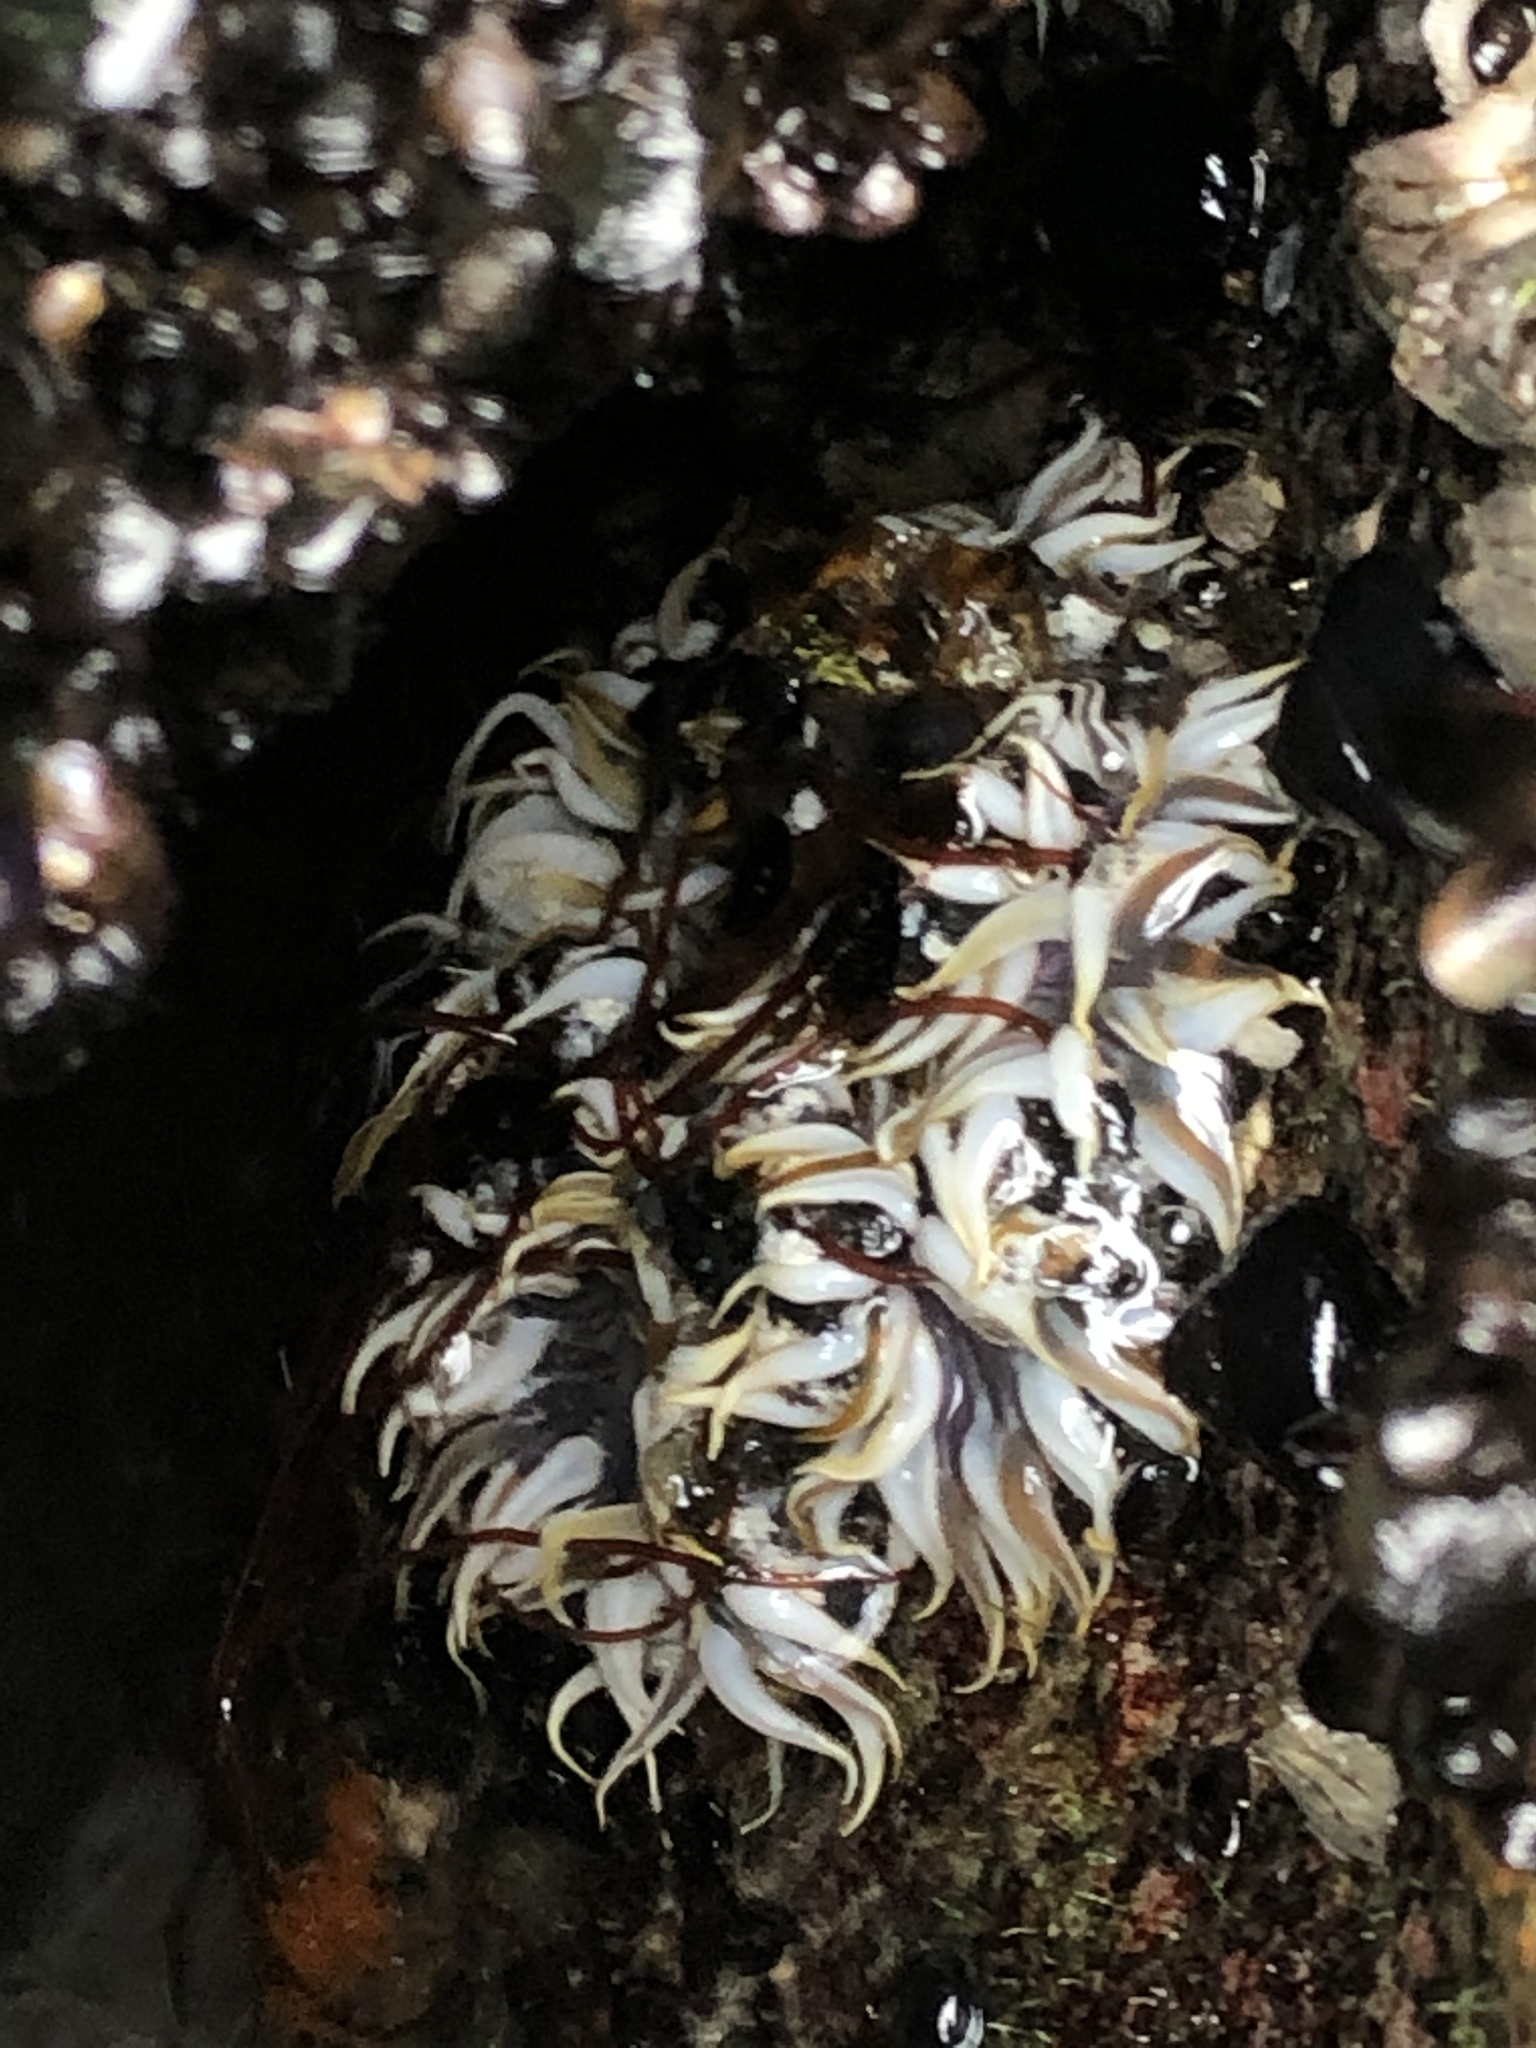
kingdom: Animalia
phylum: Cnidaria
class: Anthozoa
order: Actiniaria
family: Actiniidae
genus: Oulactis
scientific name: Oulactis concinnata
